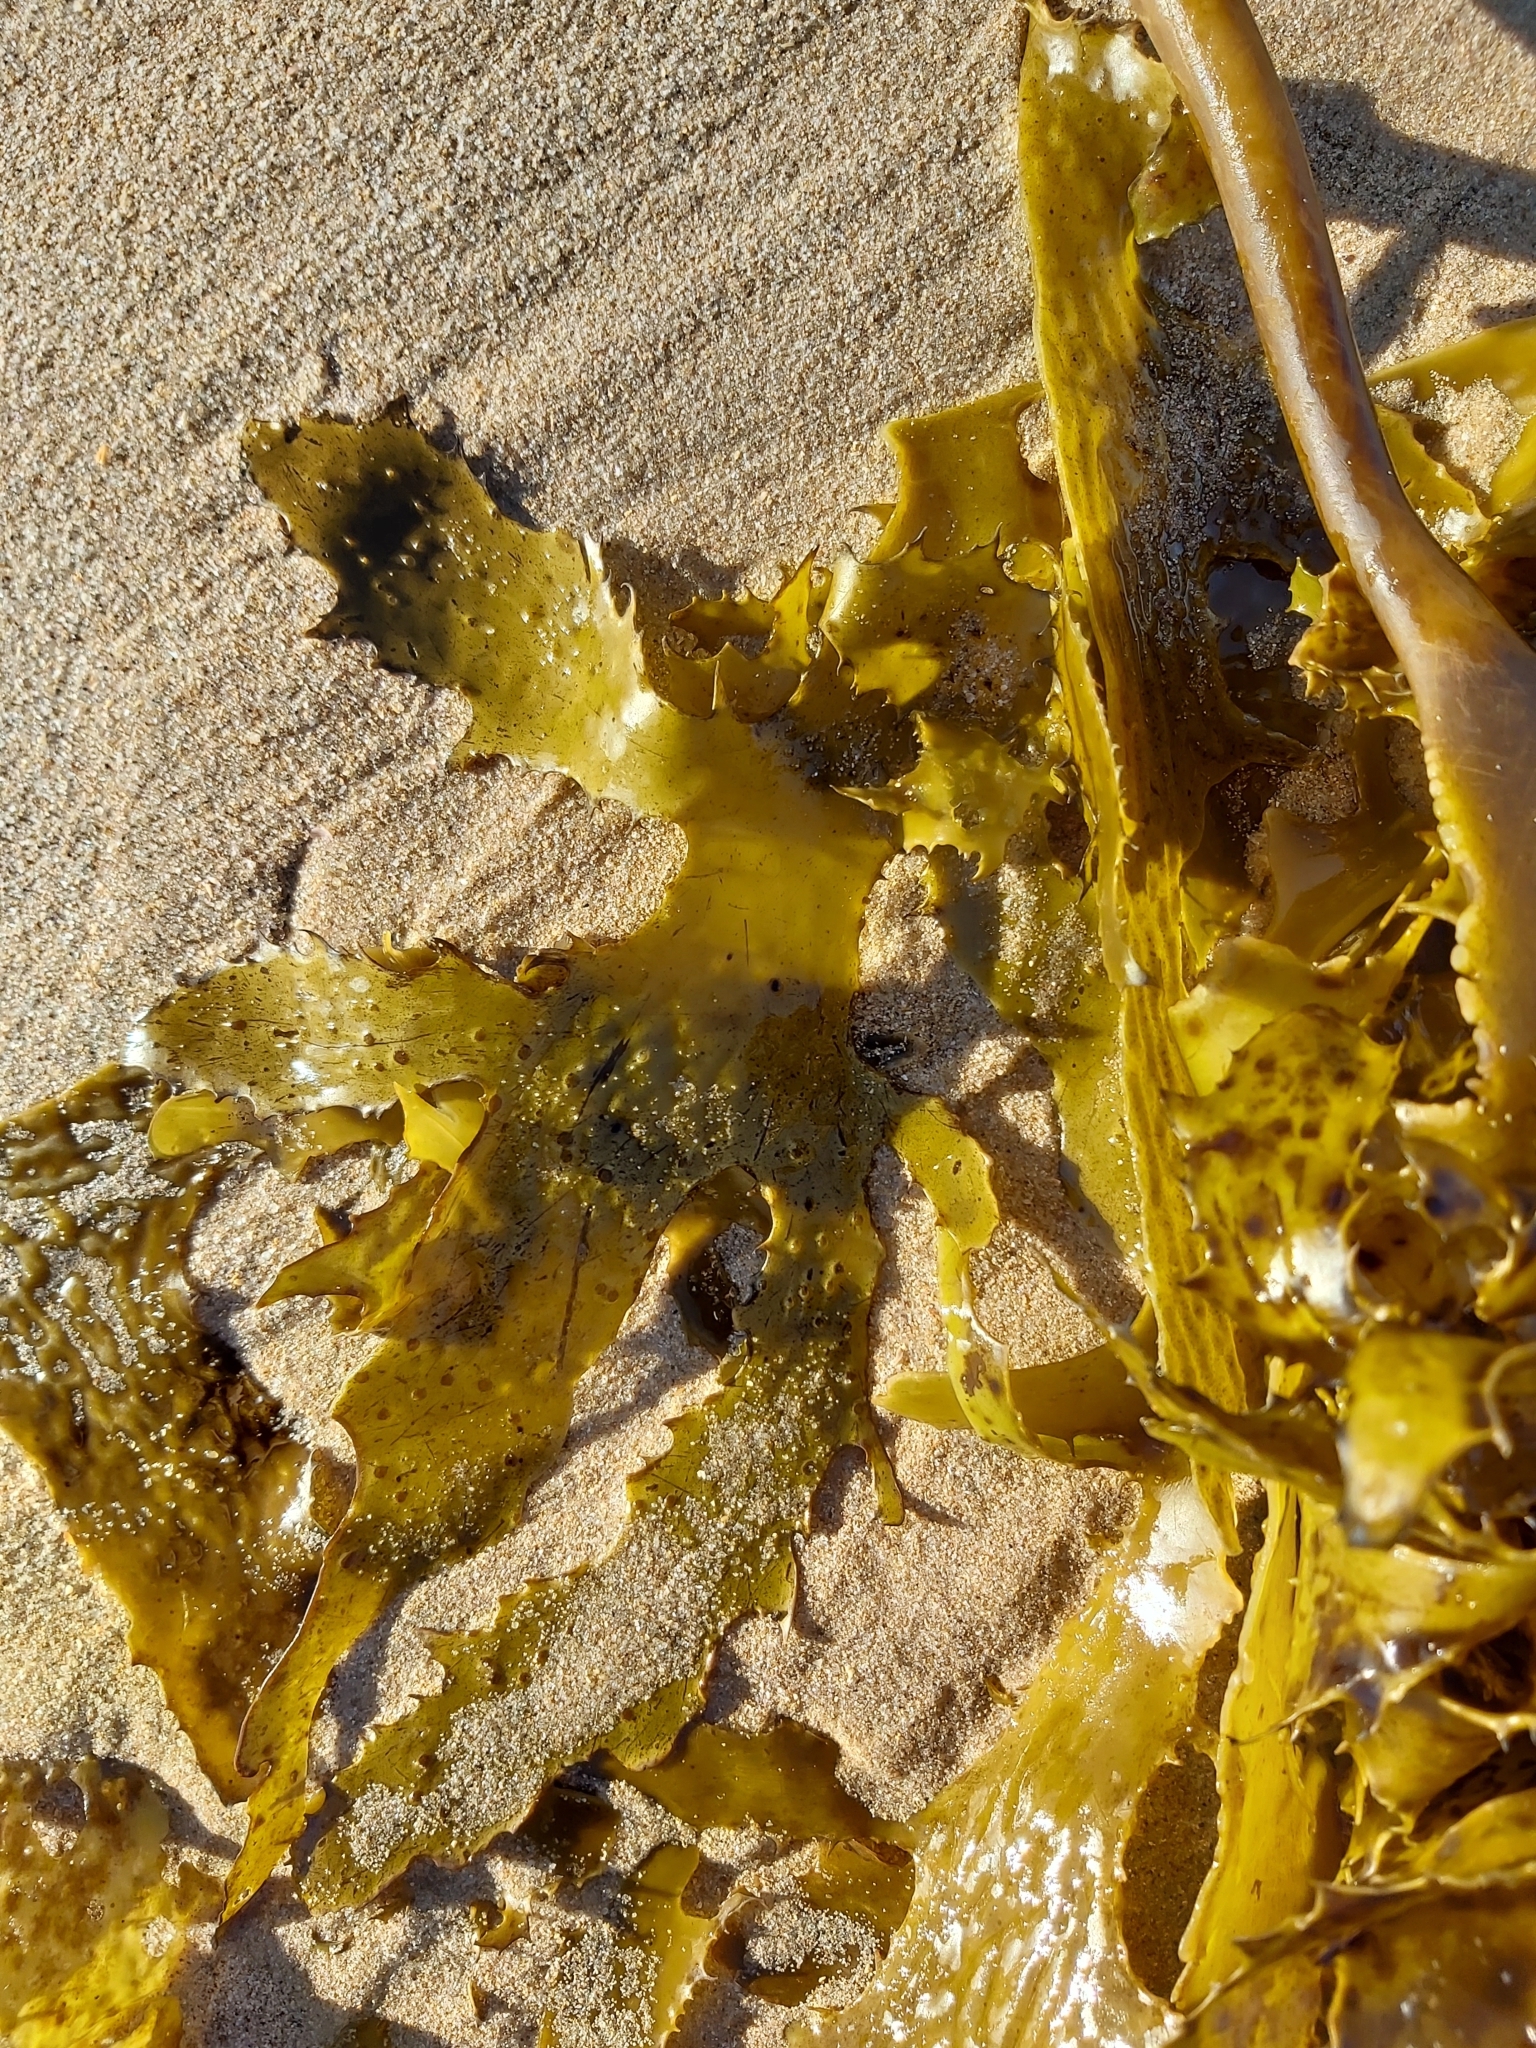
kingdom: Chromista
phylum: Ochrophyta
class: Phaeophyceae
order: Laminariales
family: Lessoniaceae
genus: Ecklonia
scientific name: Ecklonia radiata
